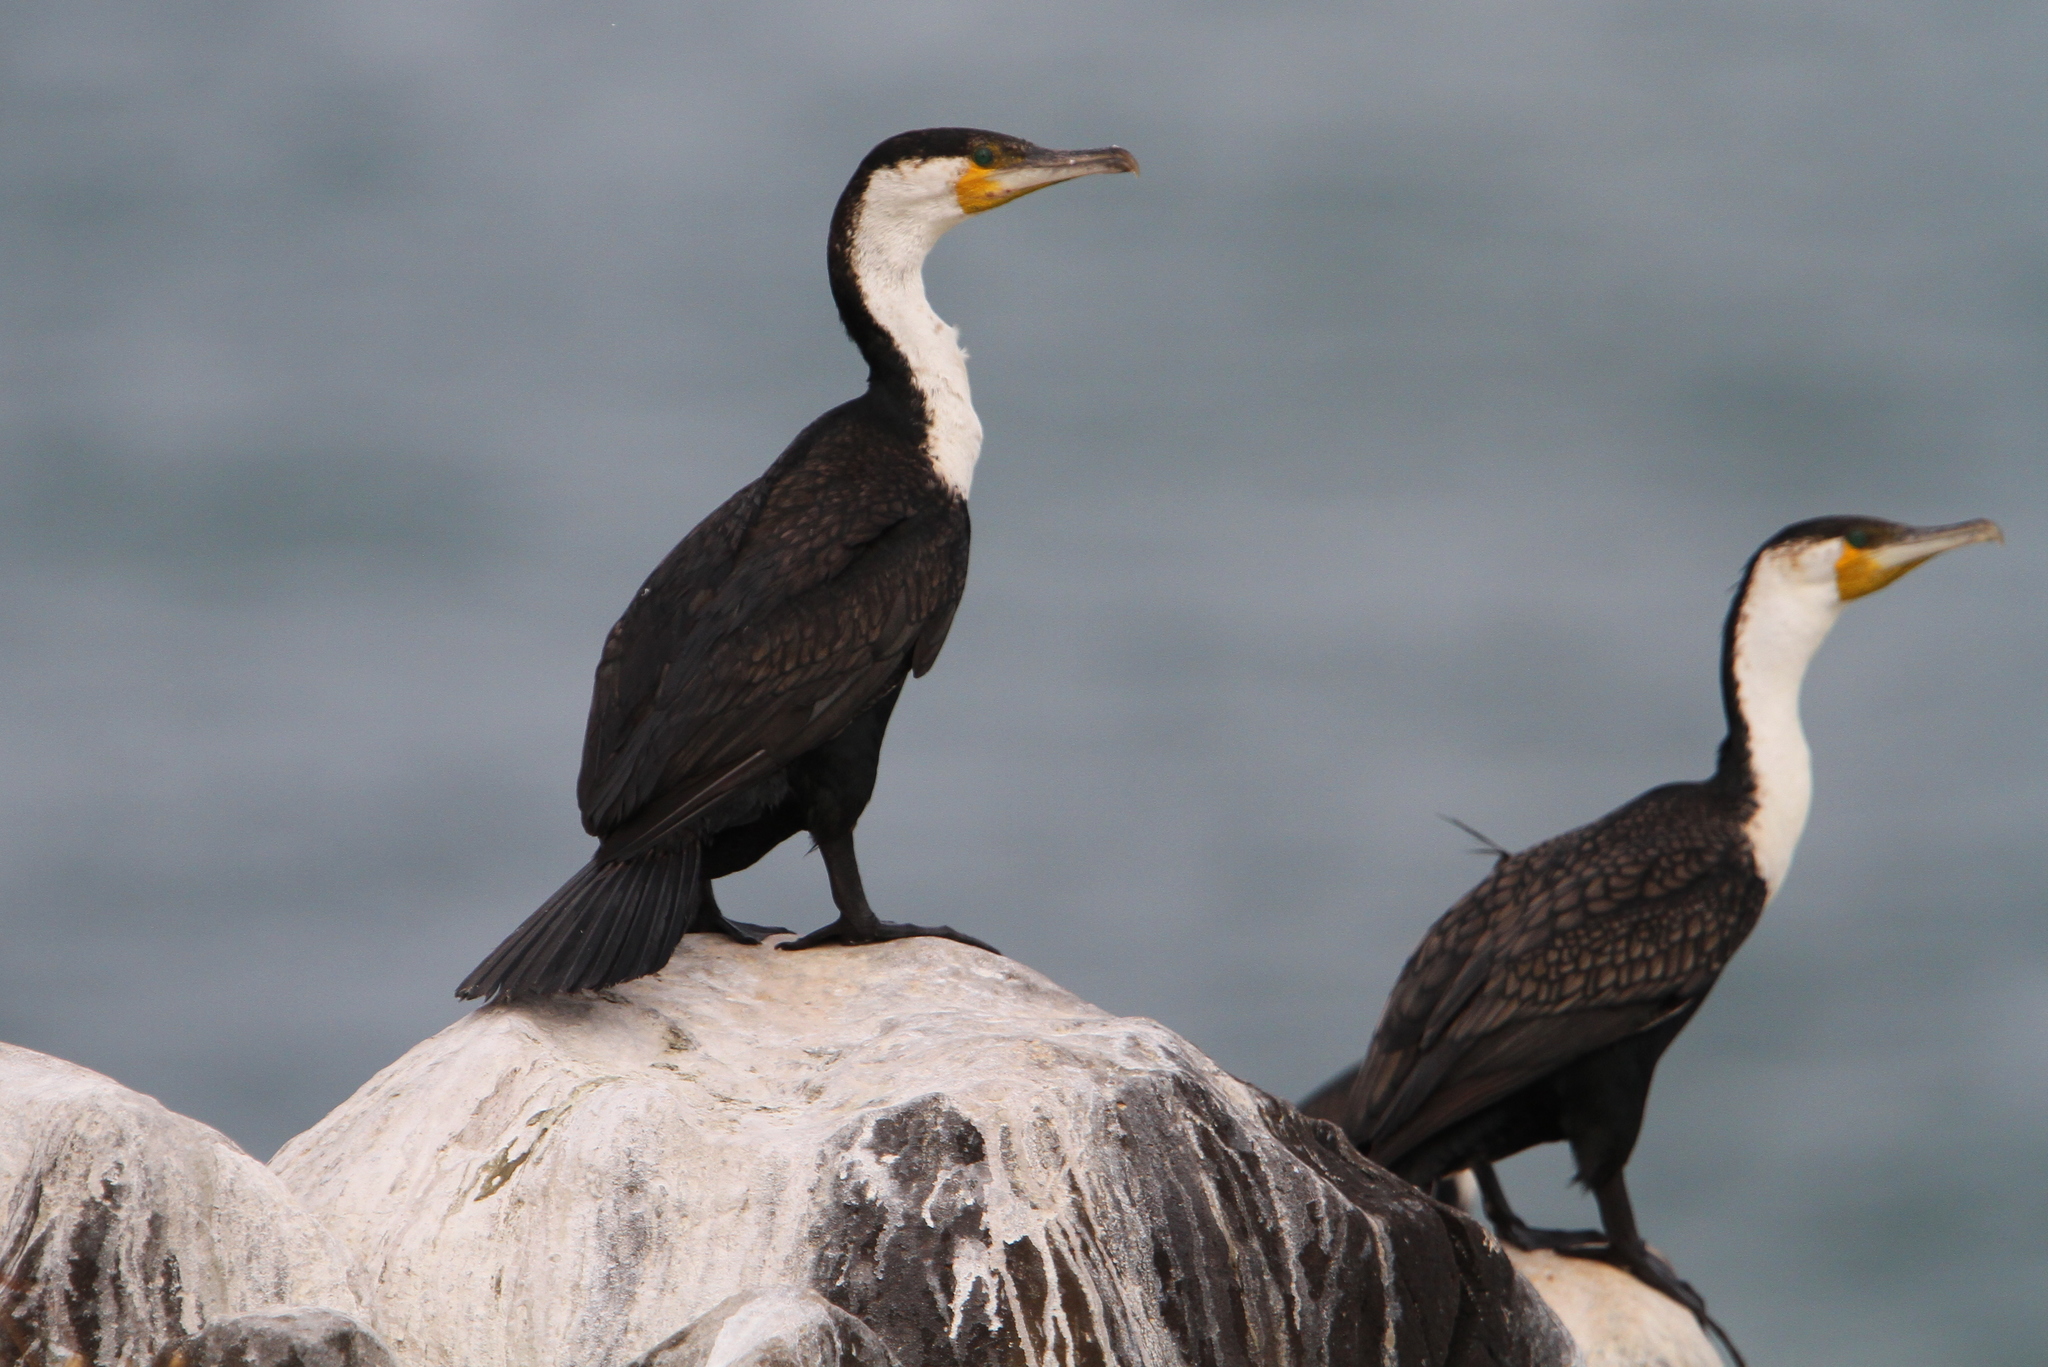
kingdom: Animalia
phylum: Chordata
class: Aves
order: Suliformes
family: Phalacrocoracidae
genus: Phalacrocorax
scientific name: Phalacrocorax carbo
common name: Great cormorant
